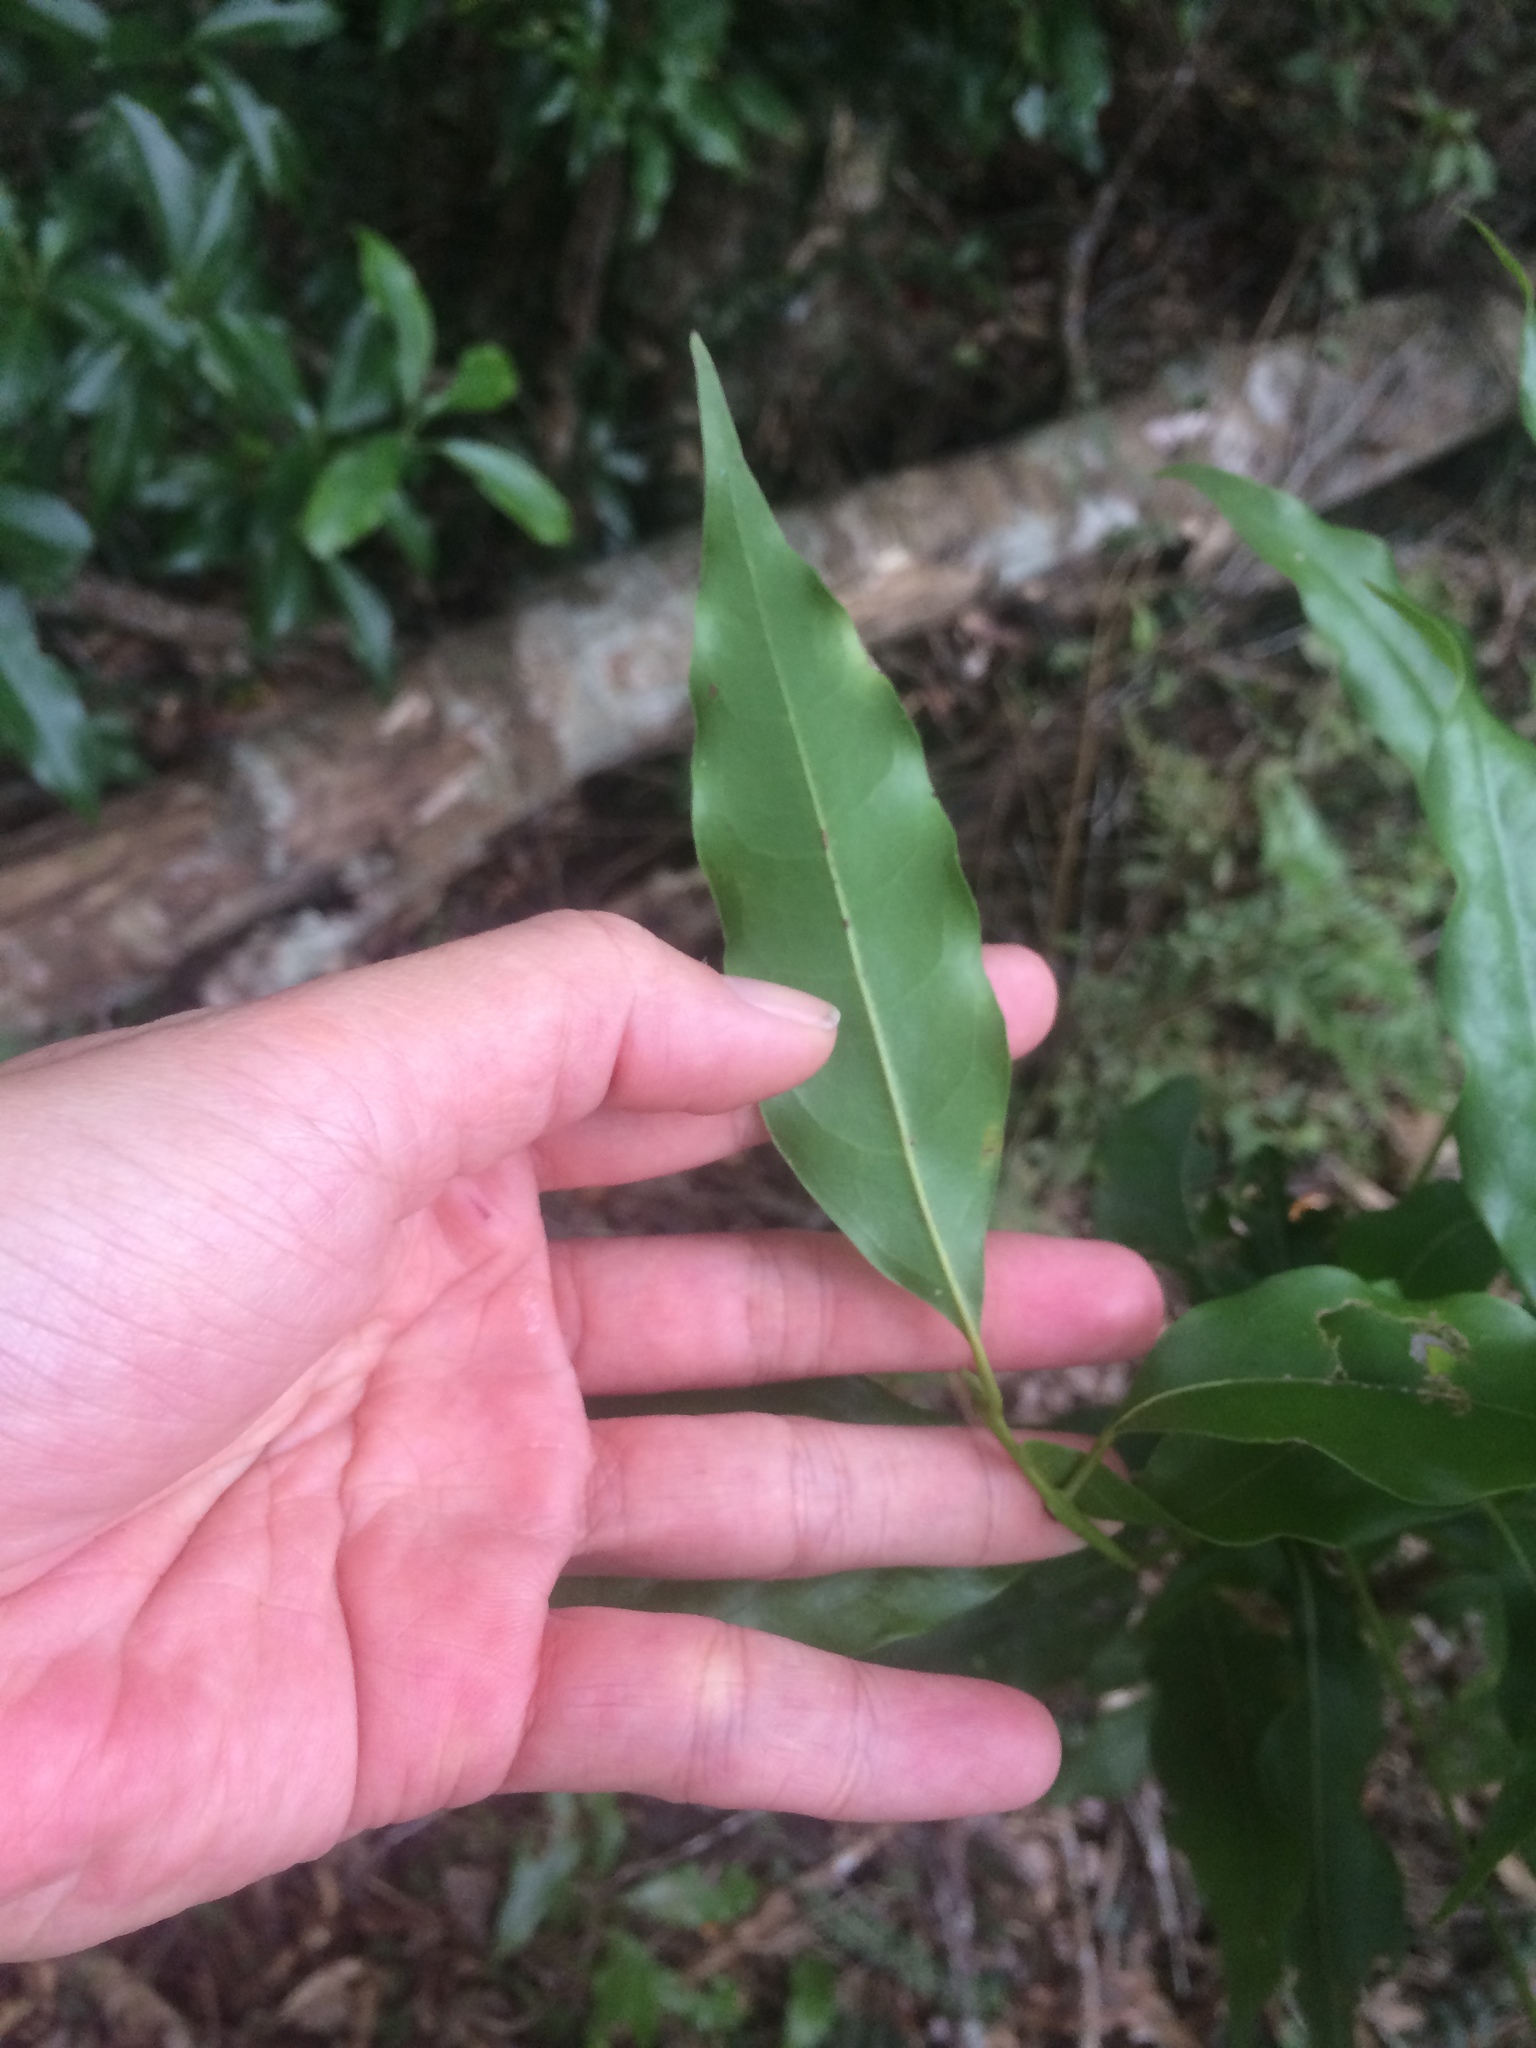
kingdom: Plantae
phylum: Tracheophyta
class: Magnoliopsida
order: Laurales
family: Lauraceae
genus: Beilschmiedia
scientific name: Beilschmiedia erythrophloia
